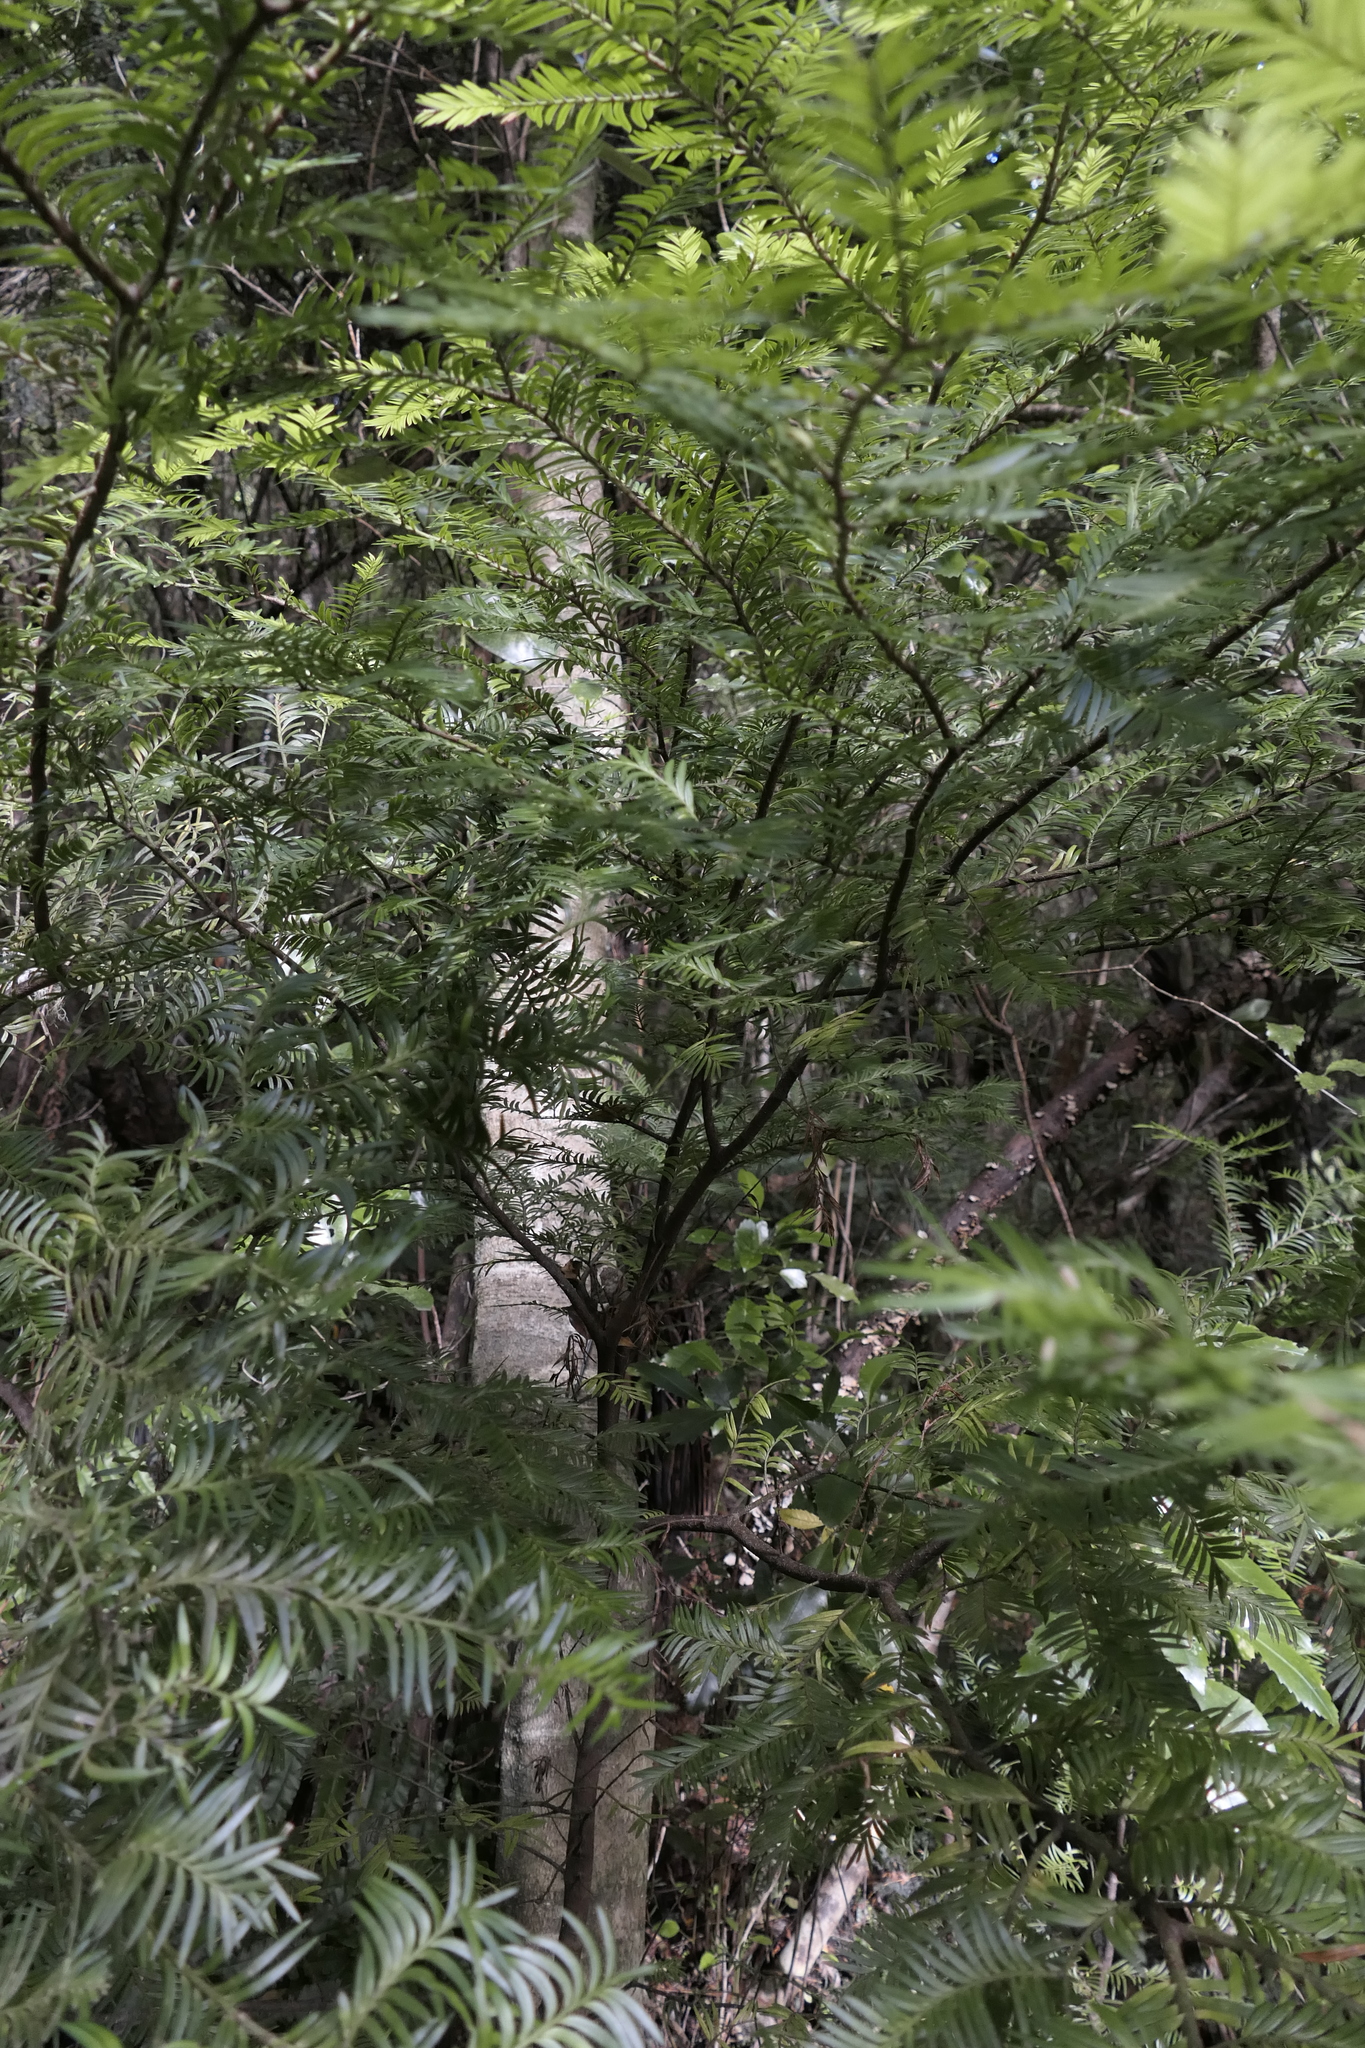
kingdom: Plantae
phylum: Tracheophyta
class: Pinopsida
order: Pinales
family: Podocarpaceae
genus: Prumnopitys
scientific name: Prumnopitys ferruginea
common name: Brown pine
